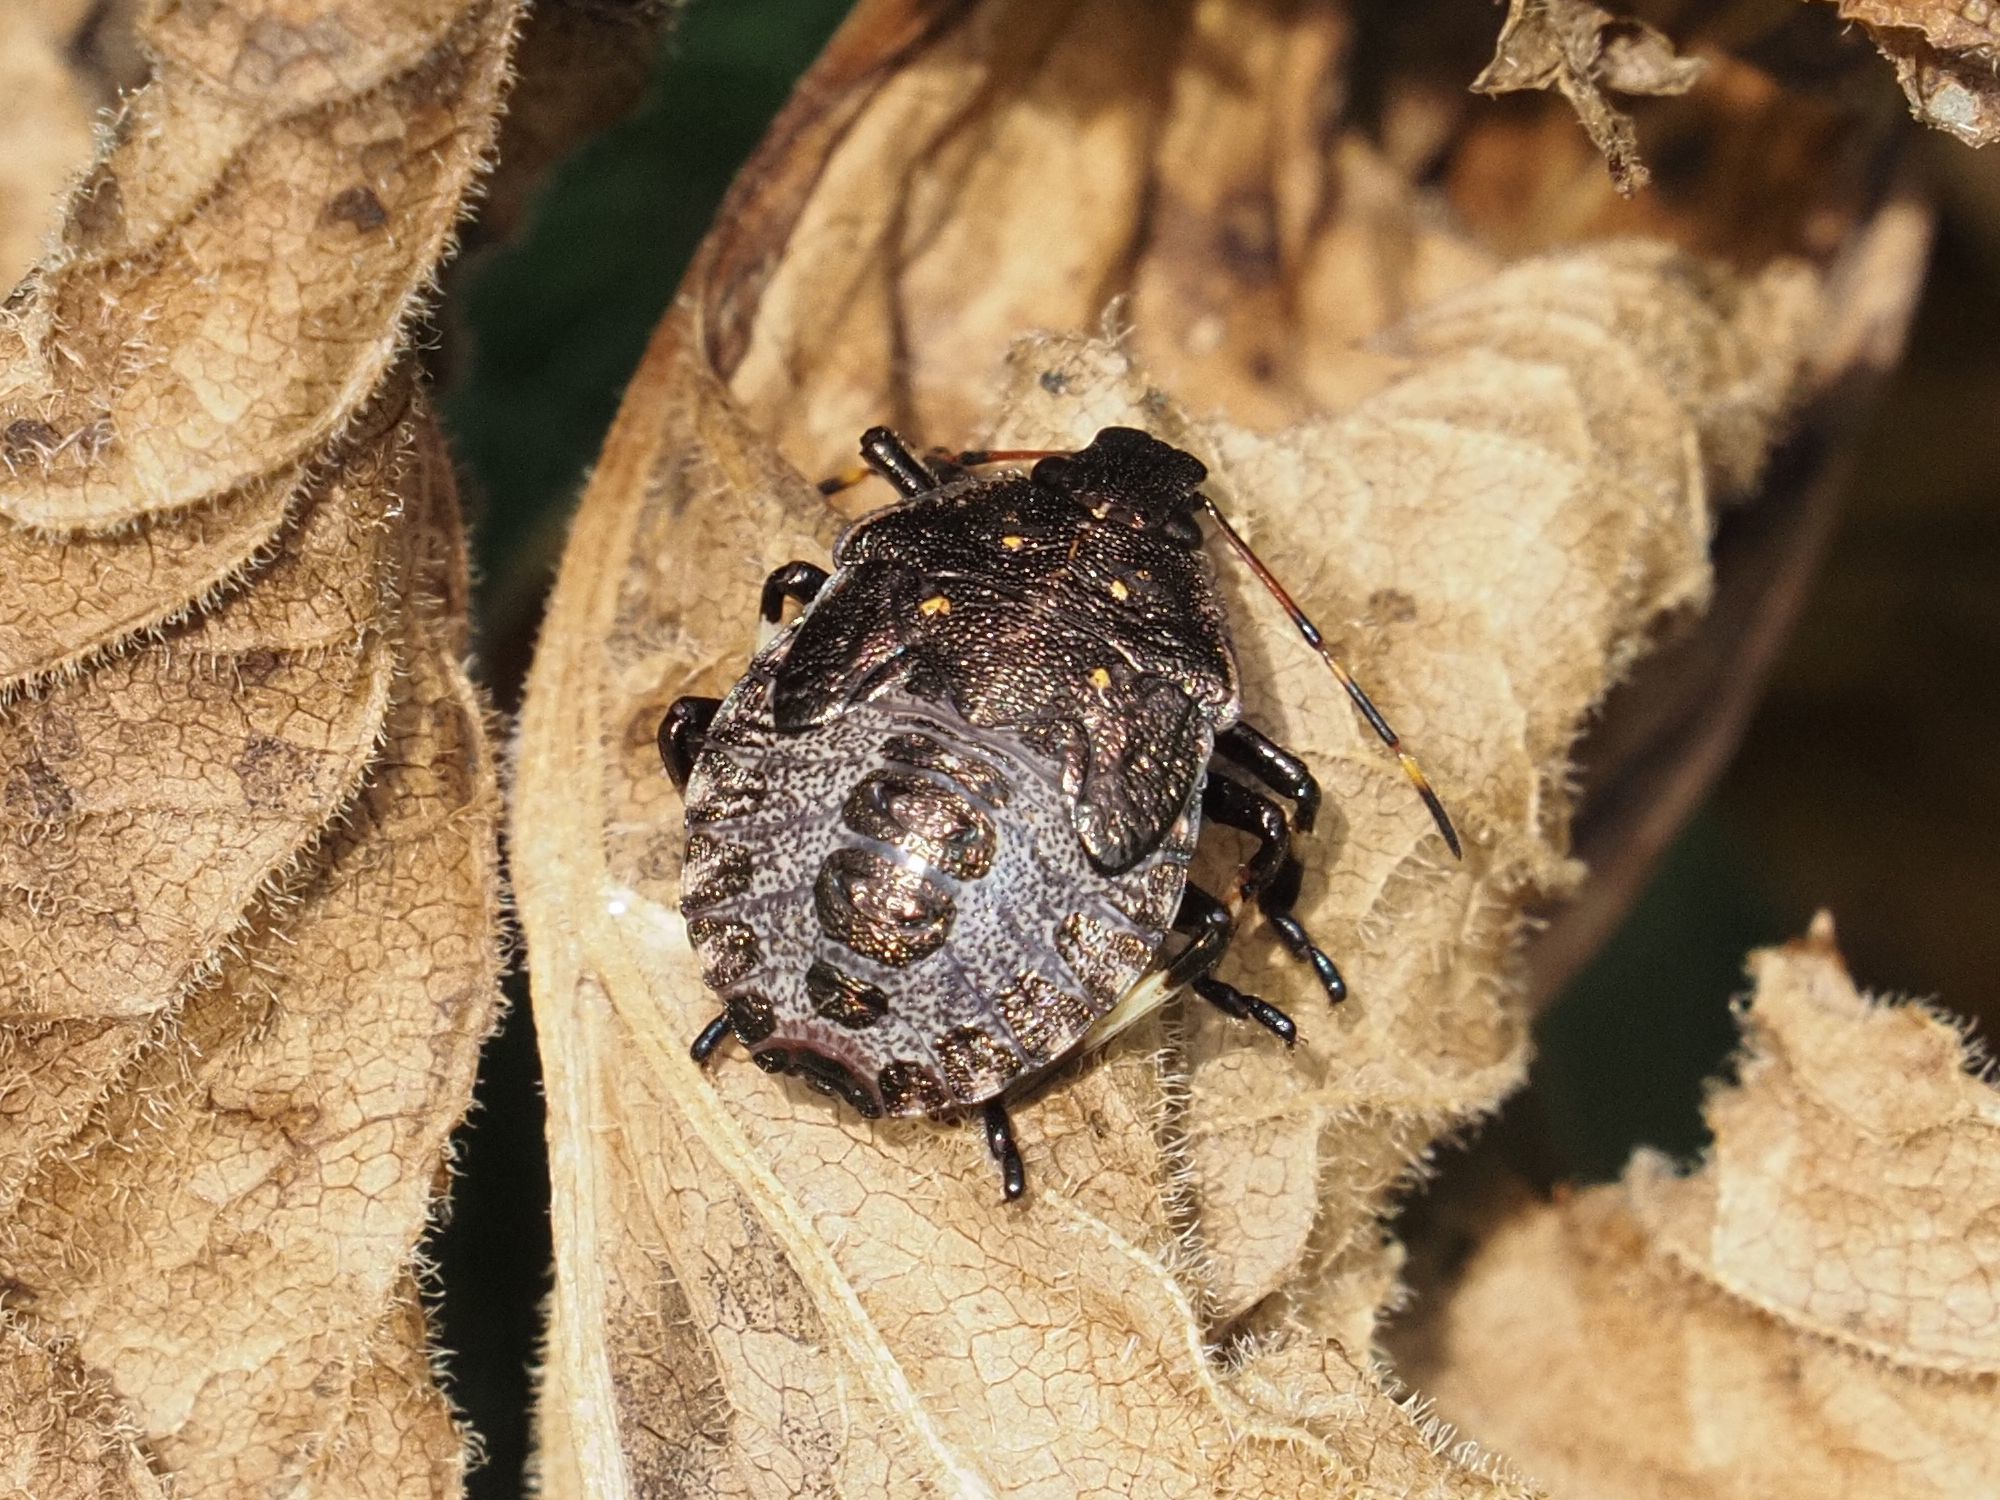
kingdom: Animalia
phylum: Arthropoda
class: Insecta
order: Hemiptera
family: Pentatomidae
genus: Picromerus
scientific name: Picromerus bidens
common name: Spiked shieldbug
